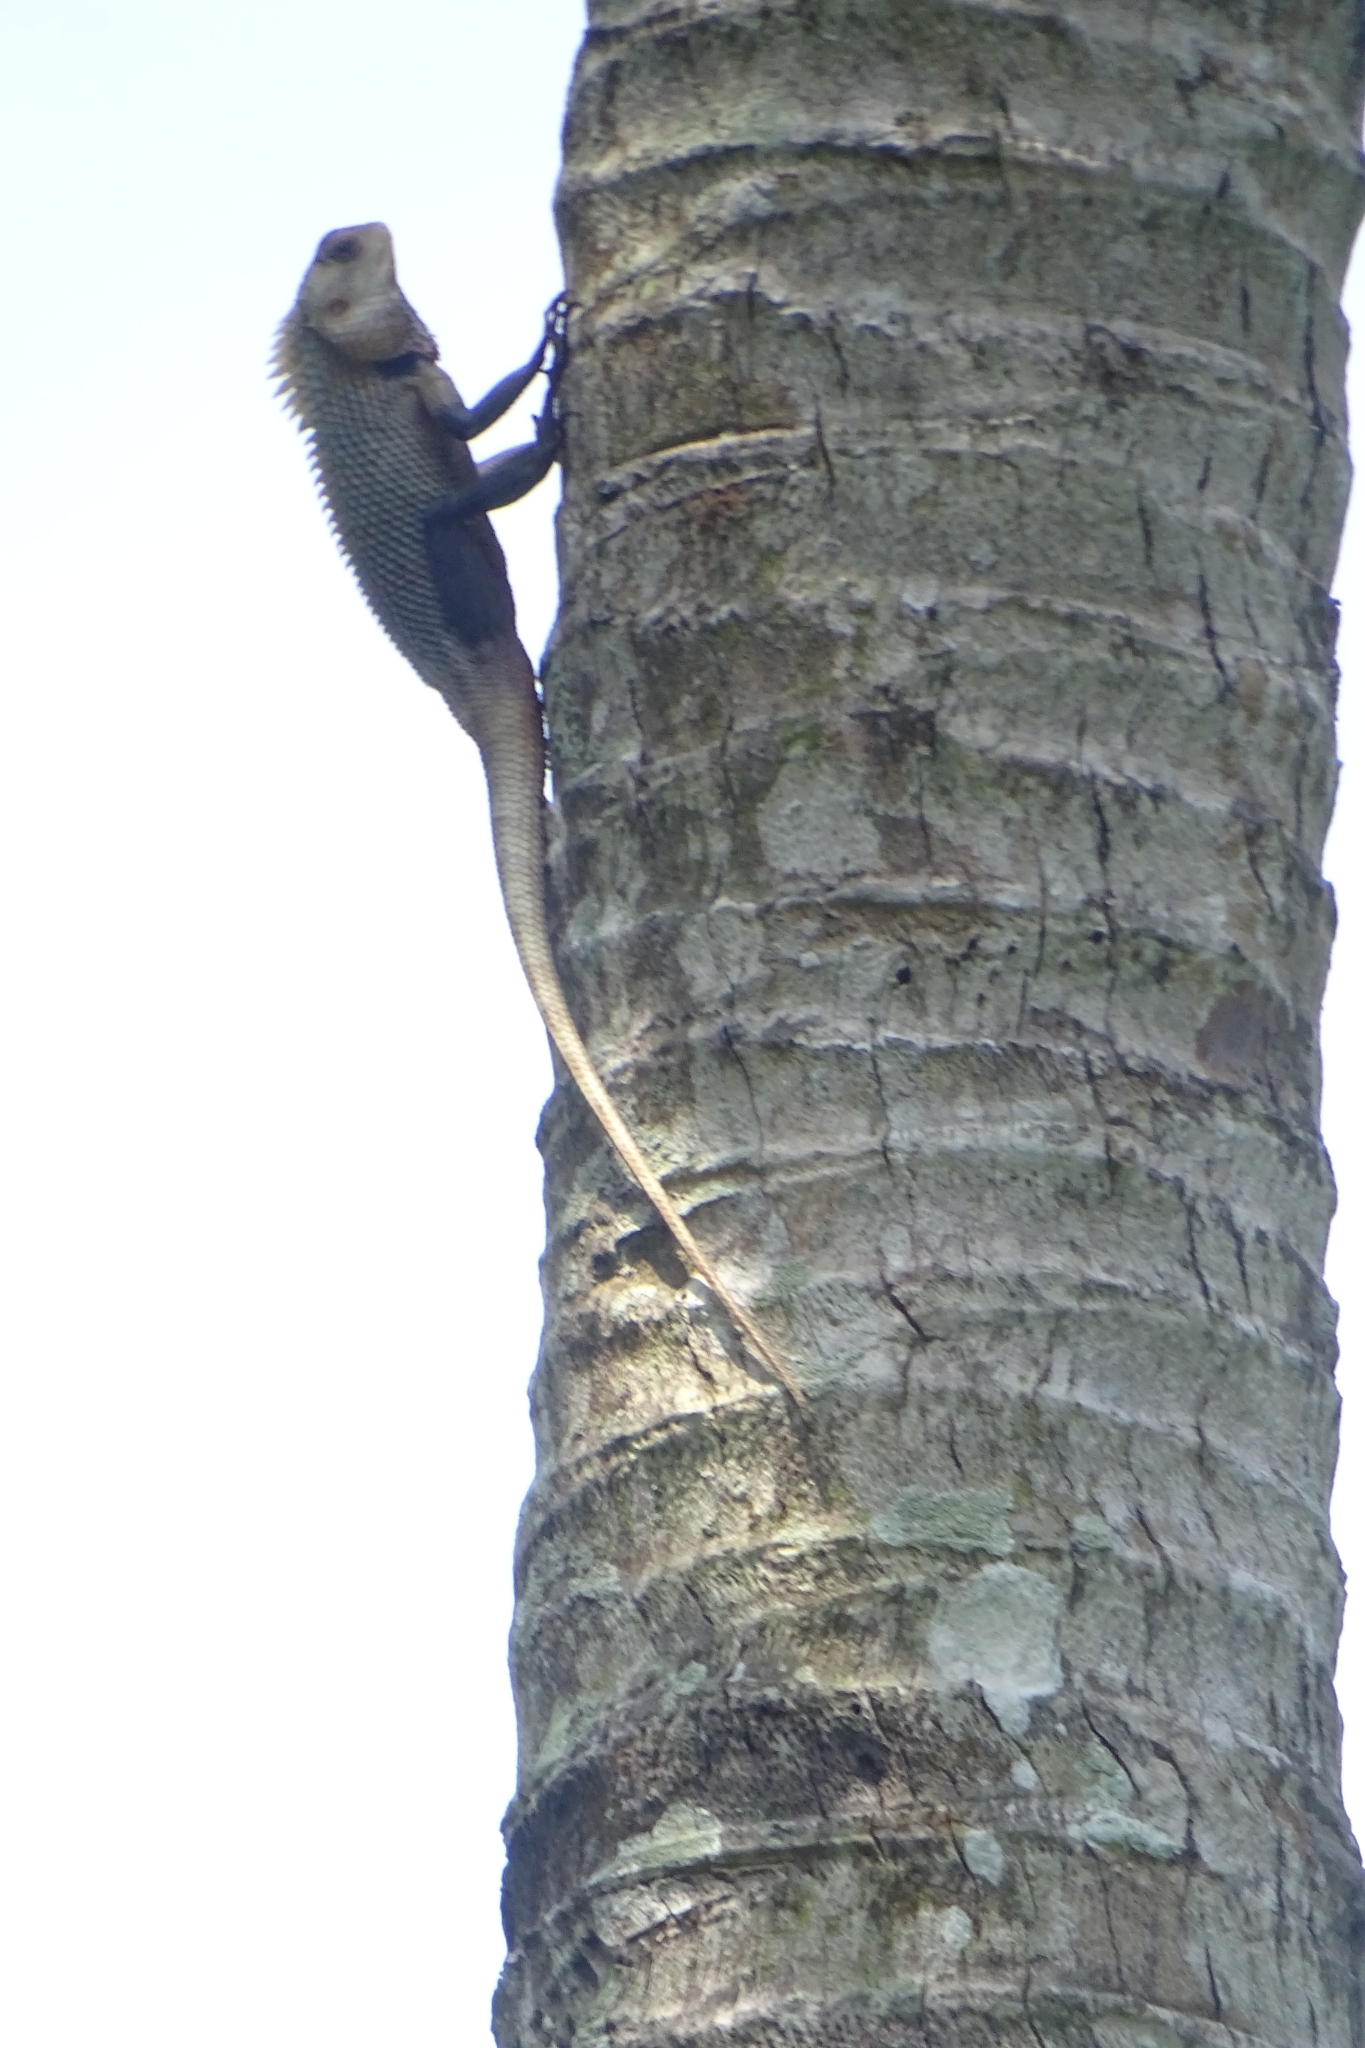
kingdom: Animalia
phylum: Chordata
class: Squamata
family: Agamidae
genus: Calotes
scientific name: Calotes versicolor
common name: Oriental garden lizard
